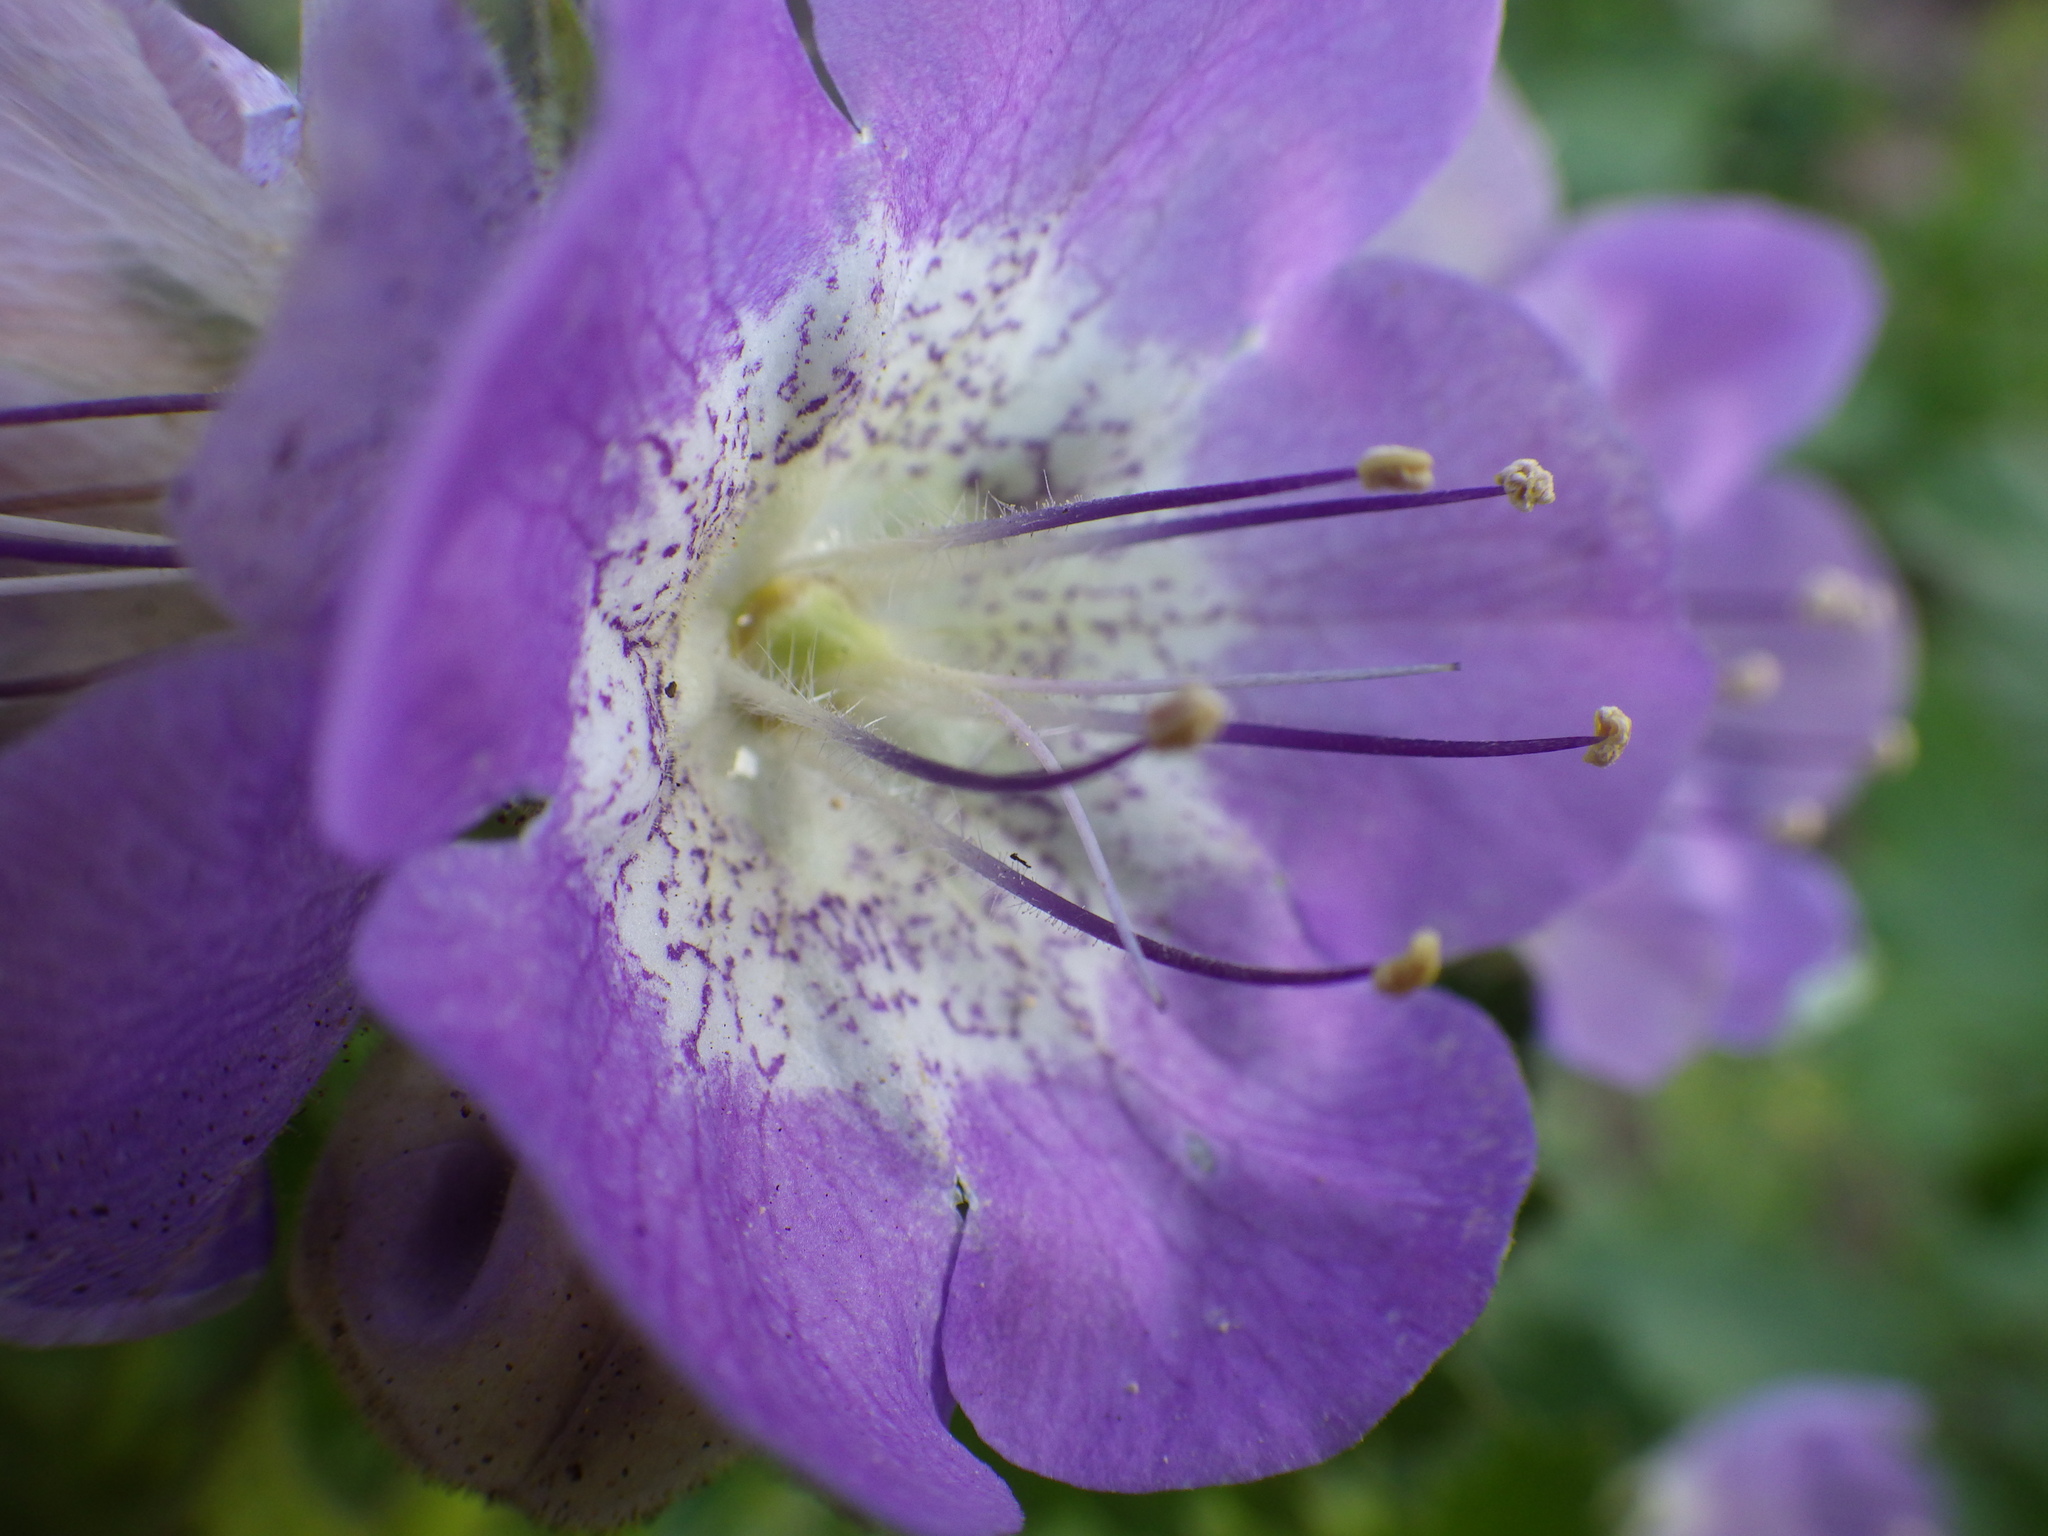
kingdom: Plantae
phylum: Tracheophyta
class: Magnoliopsida
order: Boraginales
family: Hydrophyllaceae
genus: Phacelia
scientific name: Phacelia grandiflora
